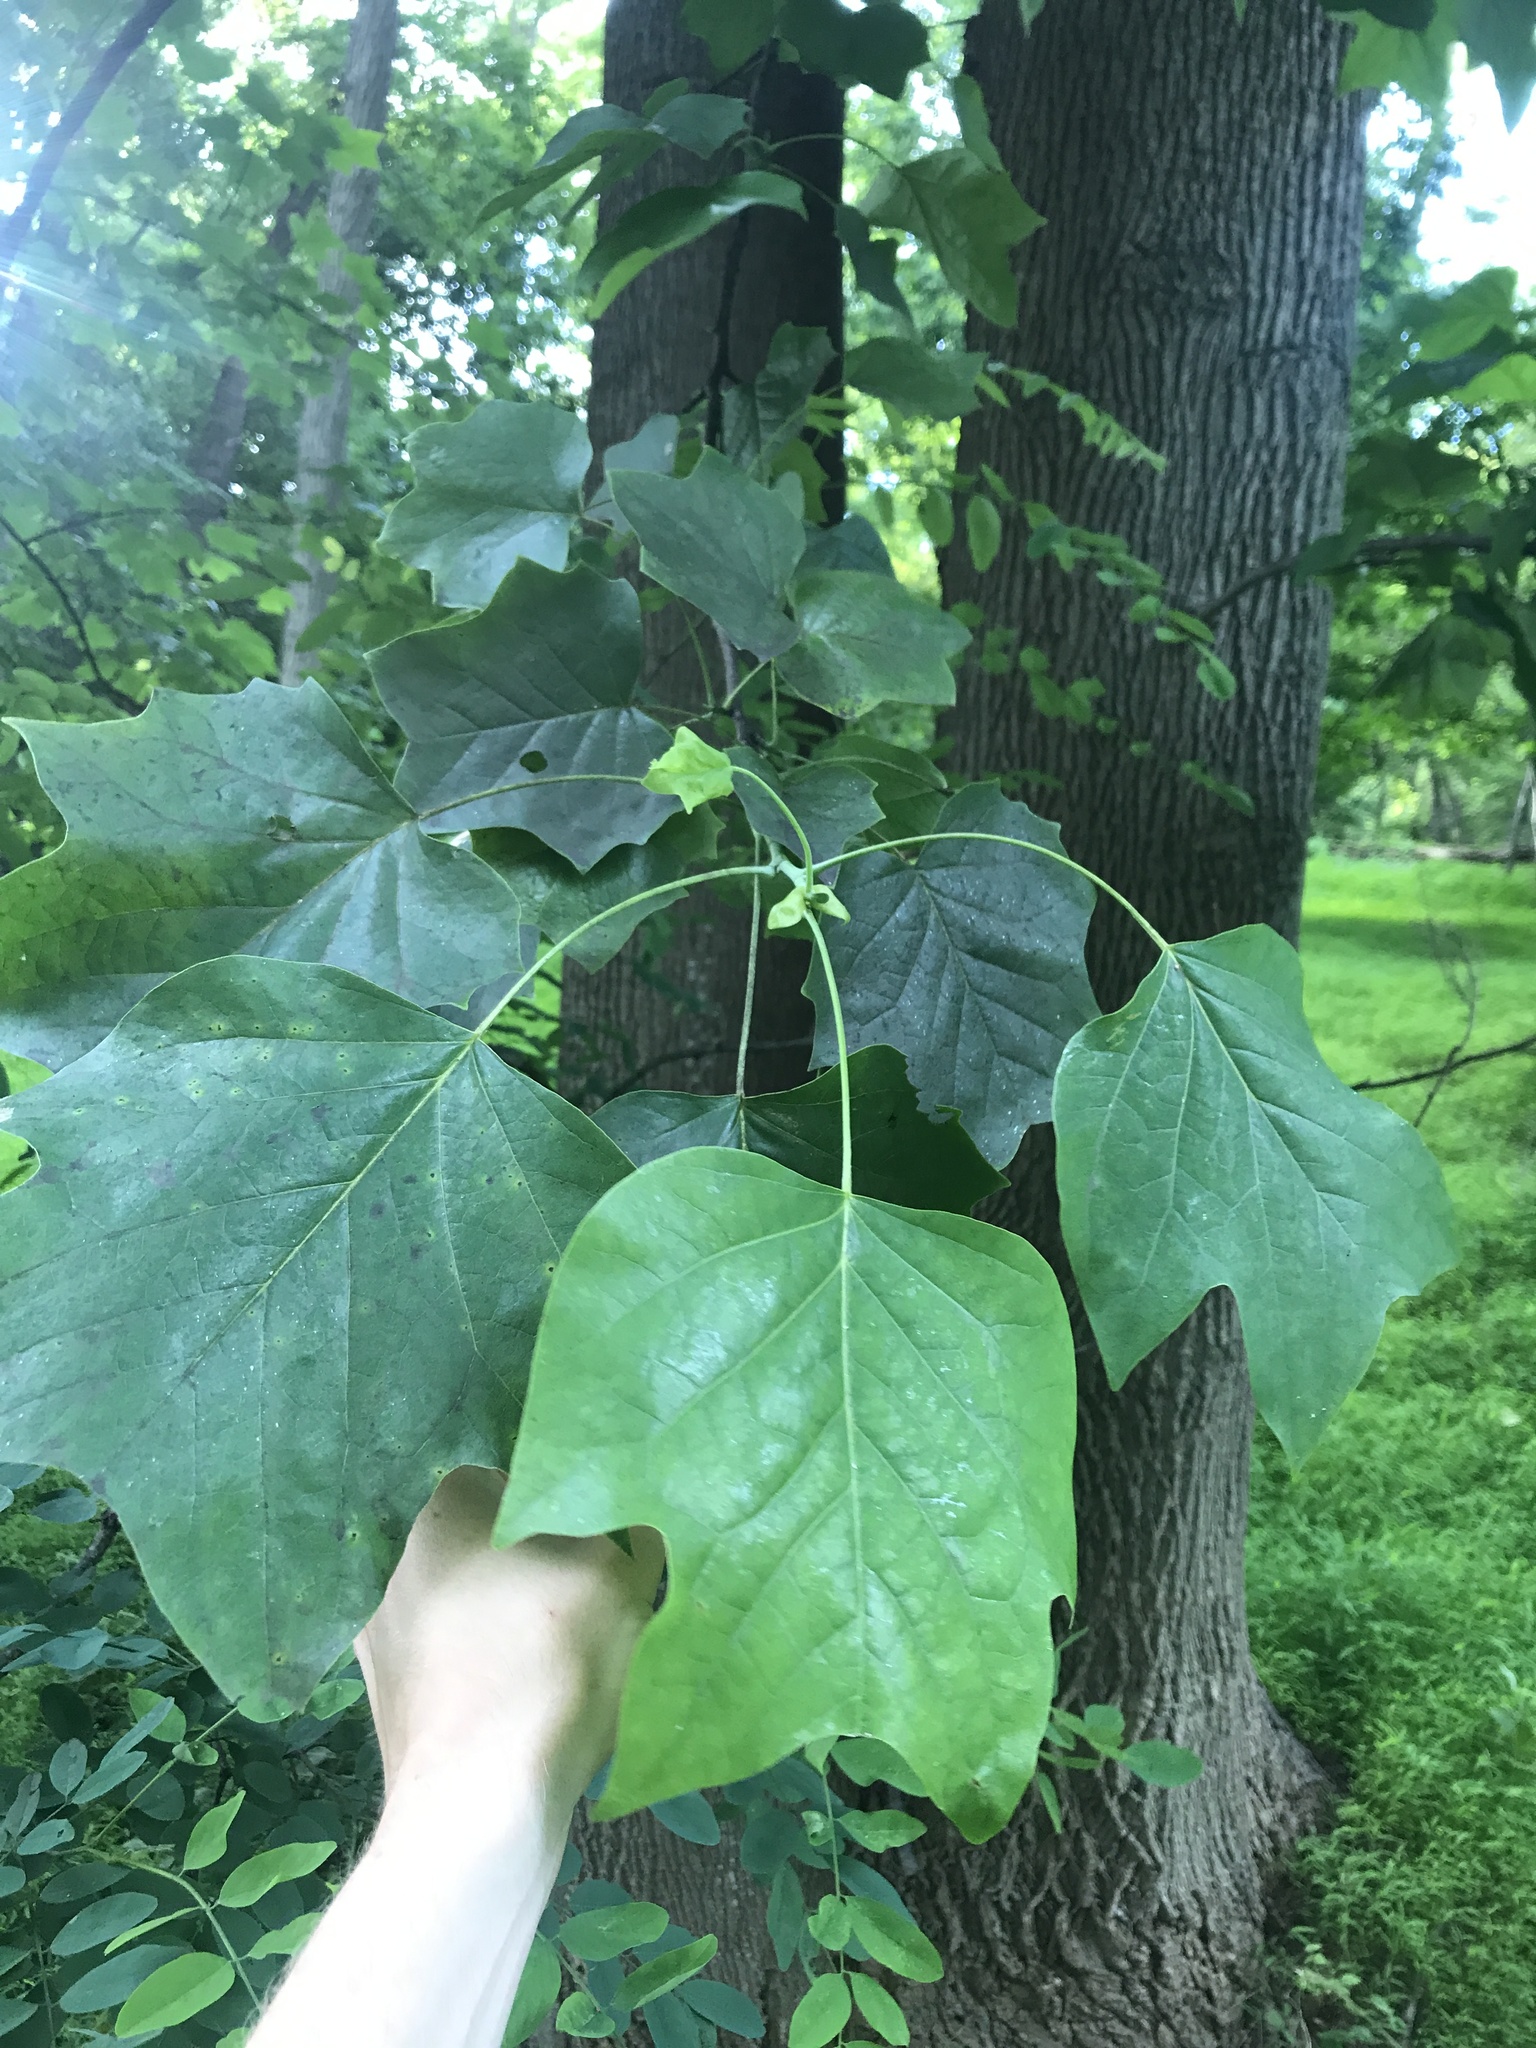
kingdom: Plantae
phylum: Tracheophyta
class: Magnoliopsida
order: Magnoliales
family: Magnoliaceae
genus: Liriodendron
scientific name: Liriodendron tulipifera
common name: Tulip tree
